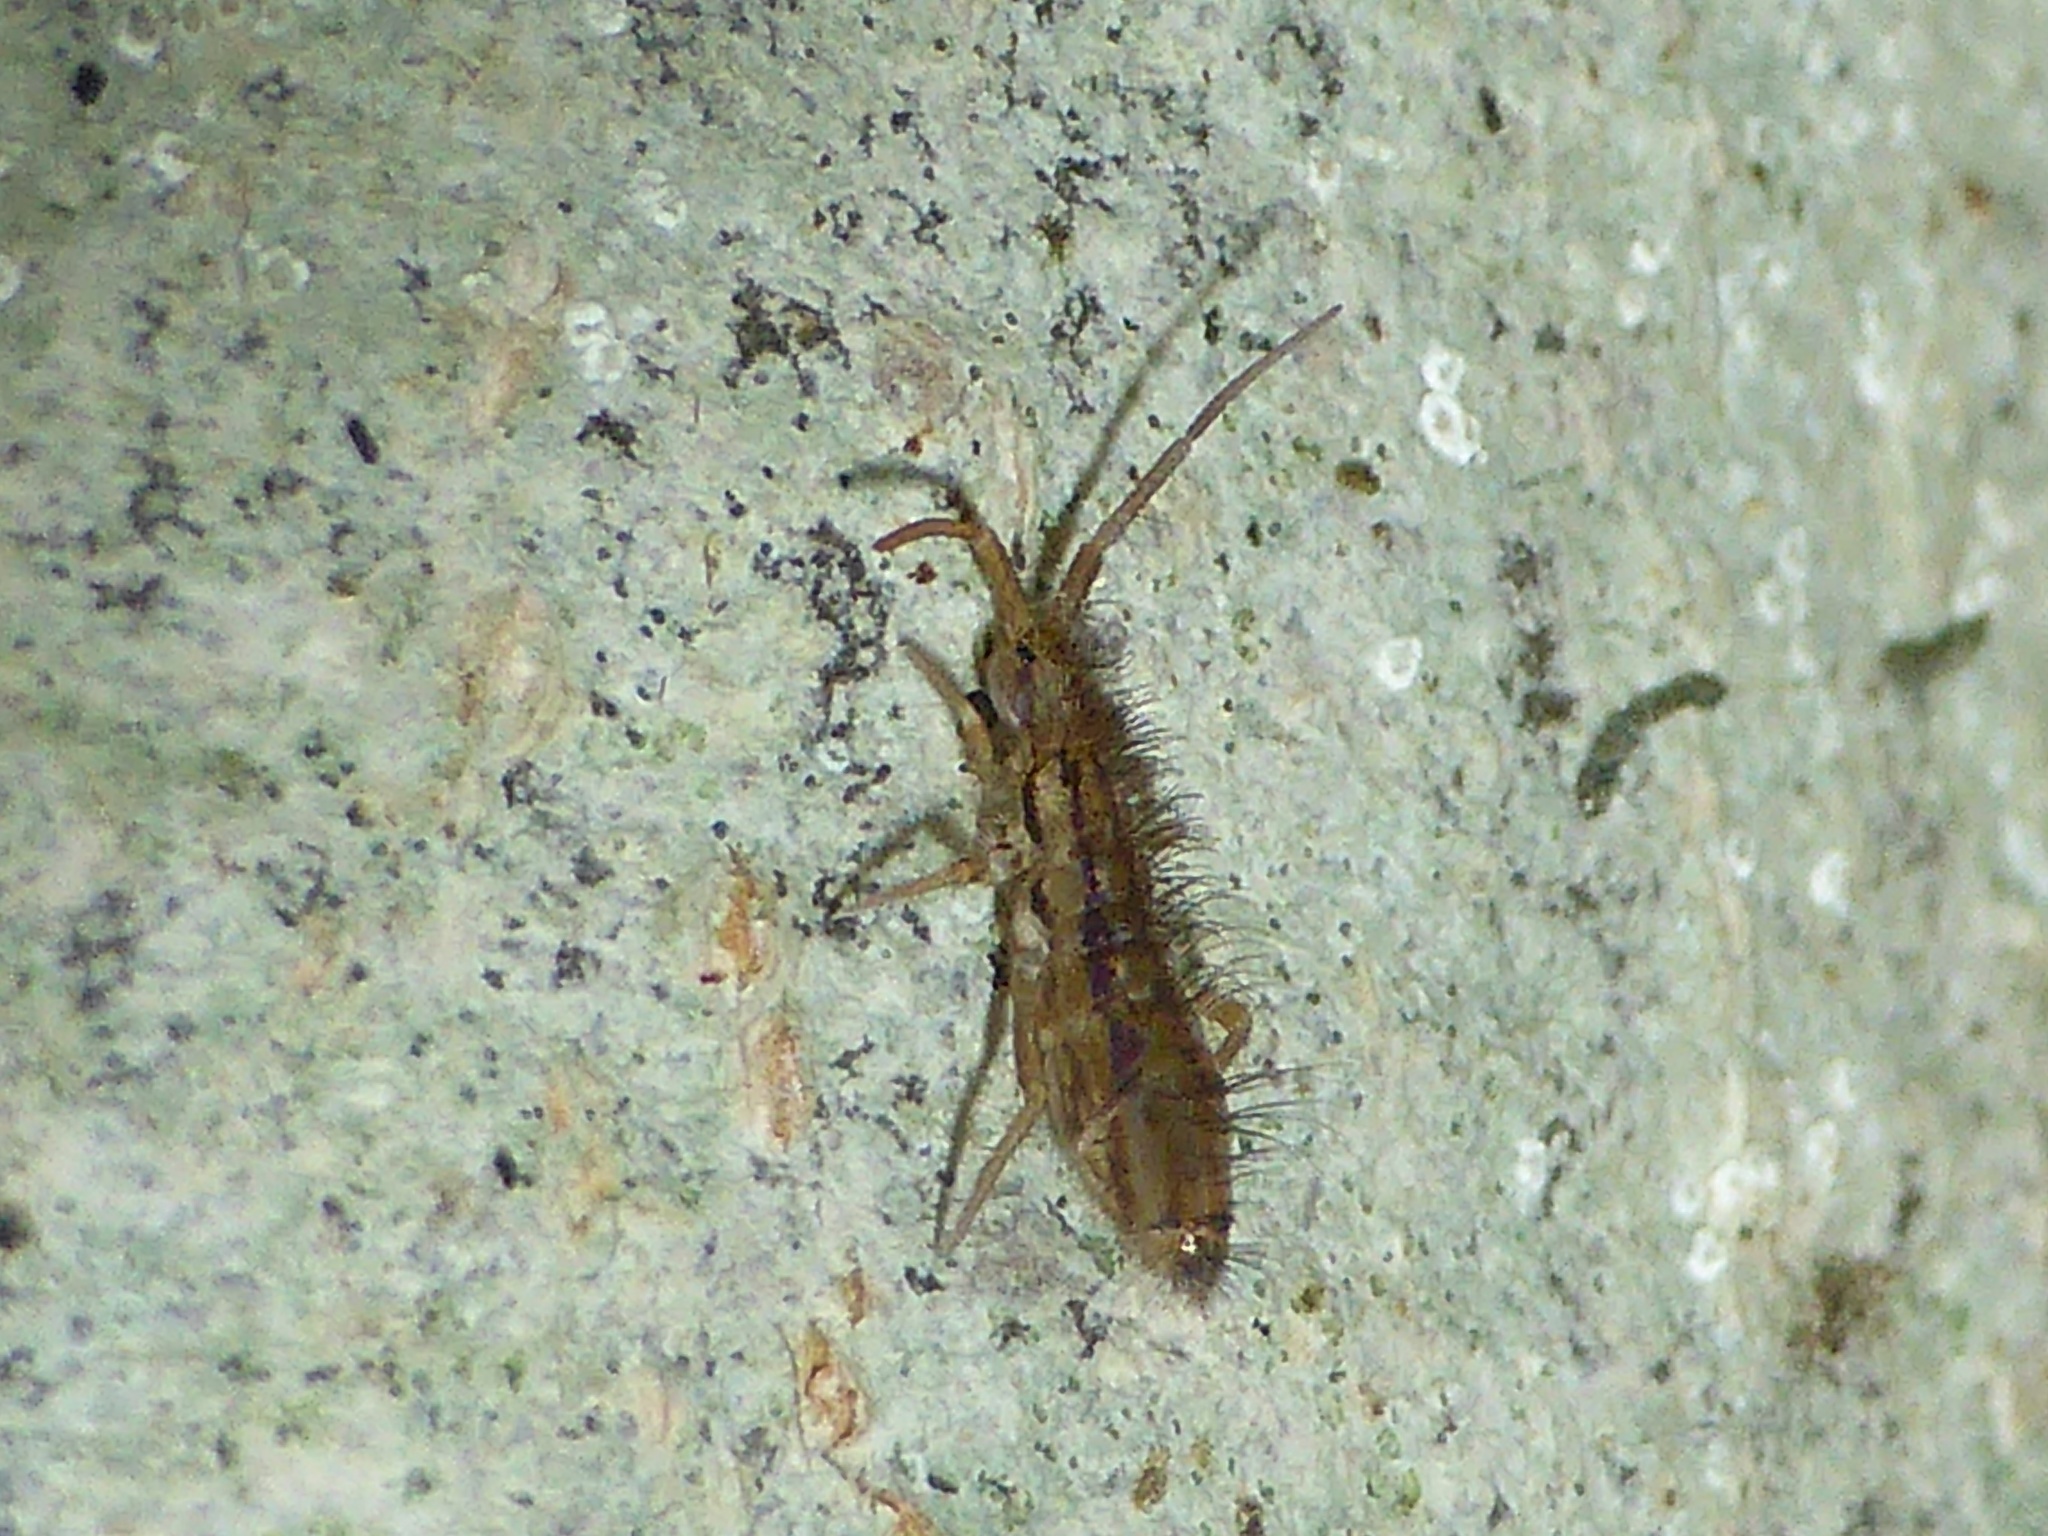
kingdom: Animalia
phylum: Arthropoda
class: Collembola
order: Entomobryomorpha
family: Orchesellidae
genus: Orchesella
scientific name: Orchesella
